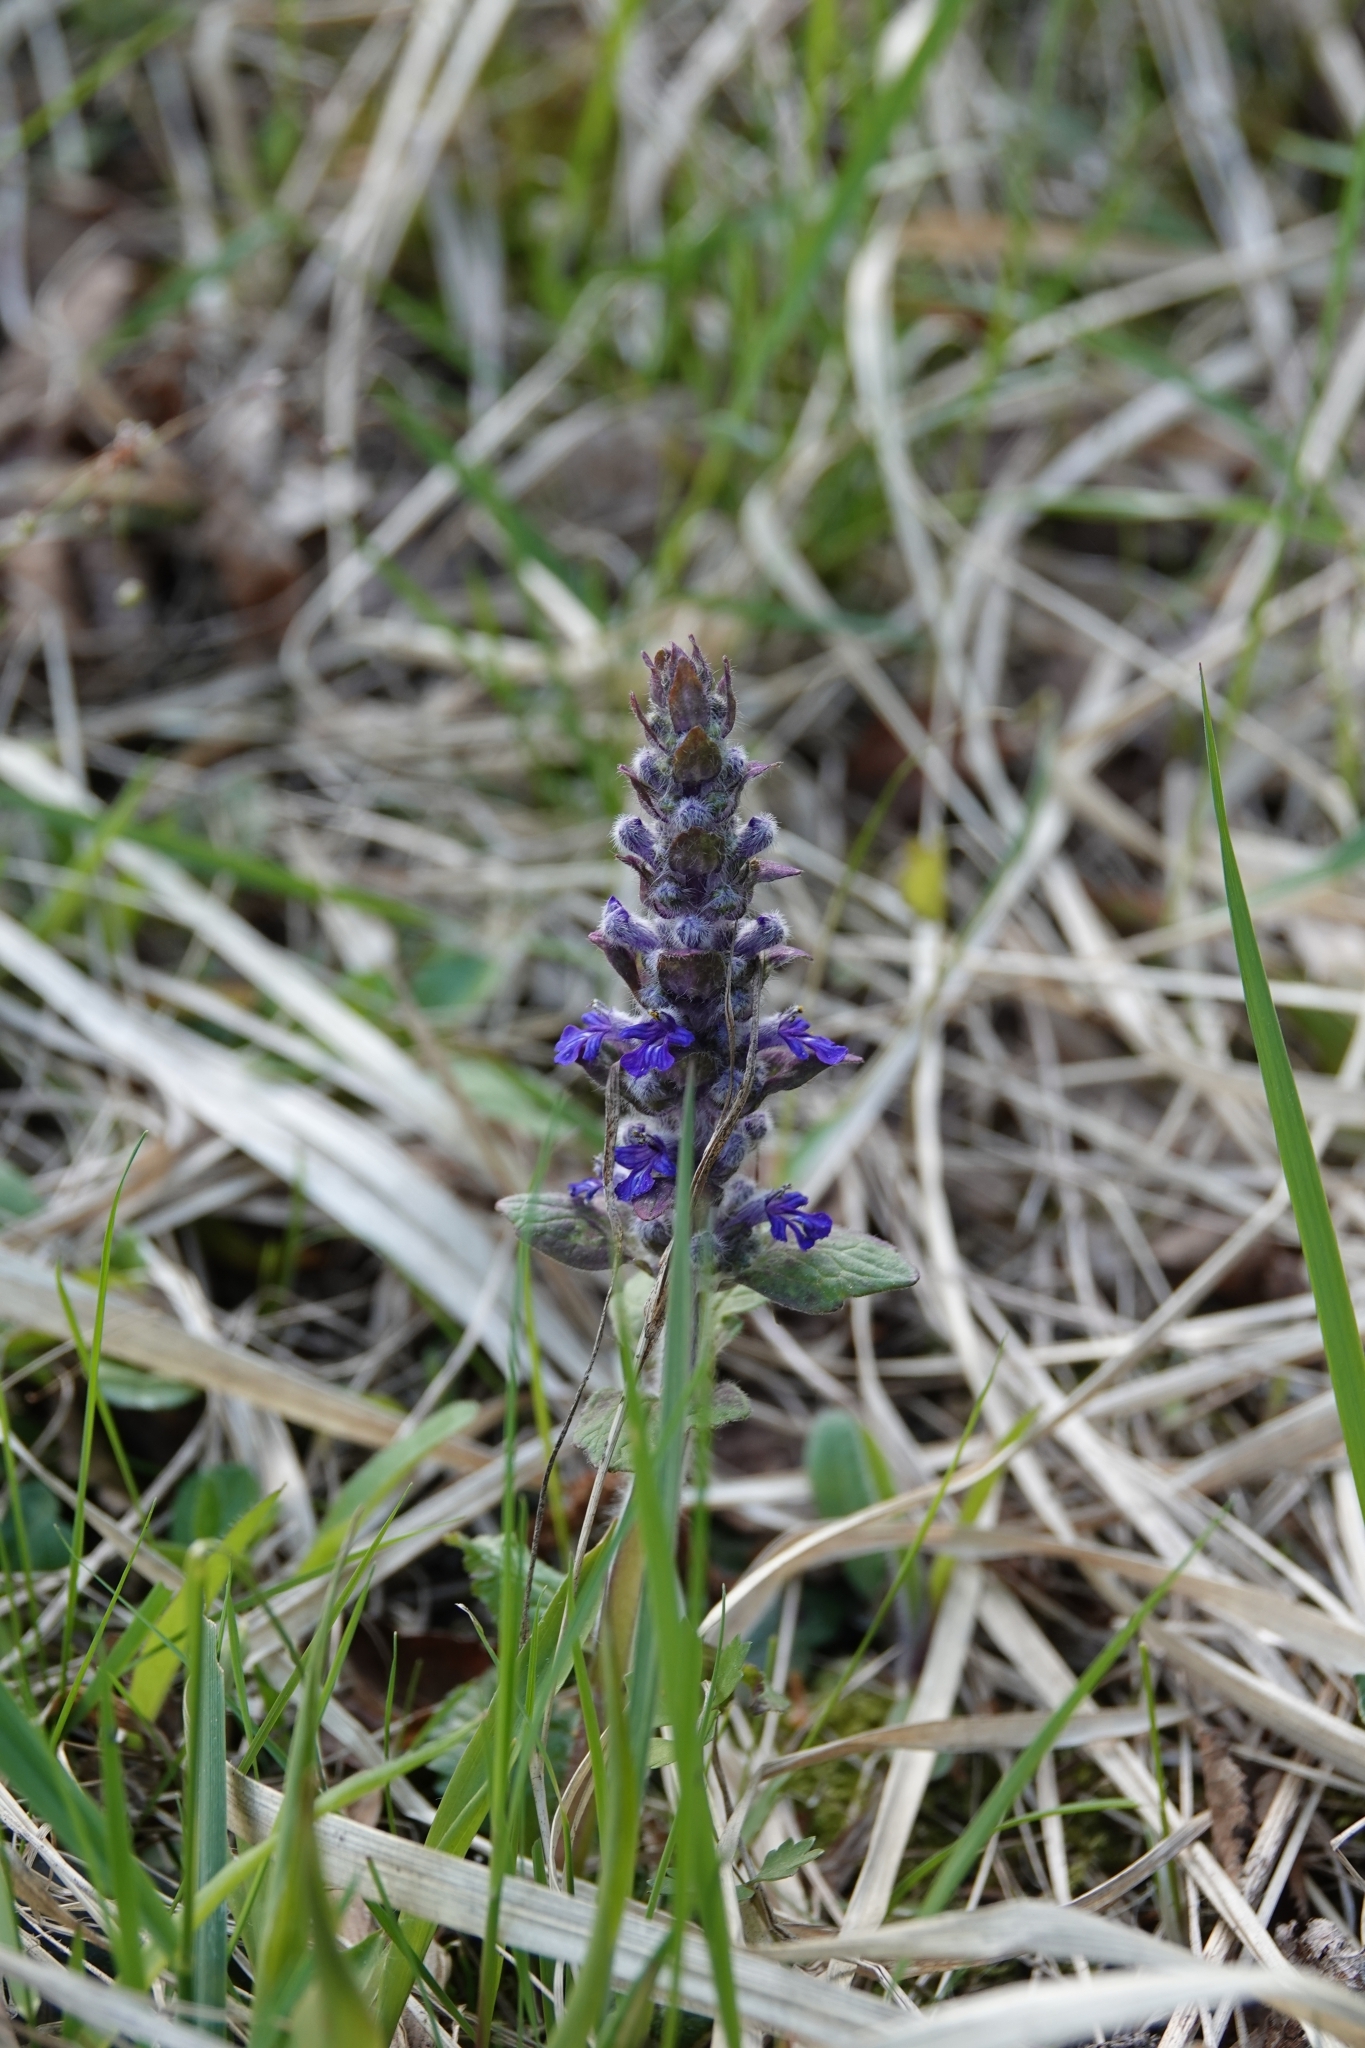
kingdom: Plantae
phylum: Tracheophyta
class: Magnoliopsida
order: Lamiales
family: Lamiaceae
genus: Ajuga
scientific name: Ajuga reptans
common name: Bugle
